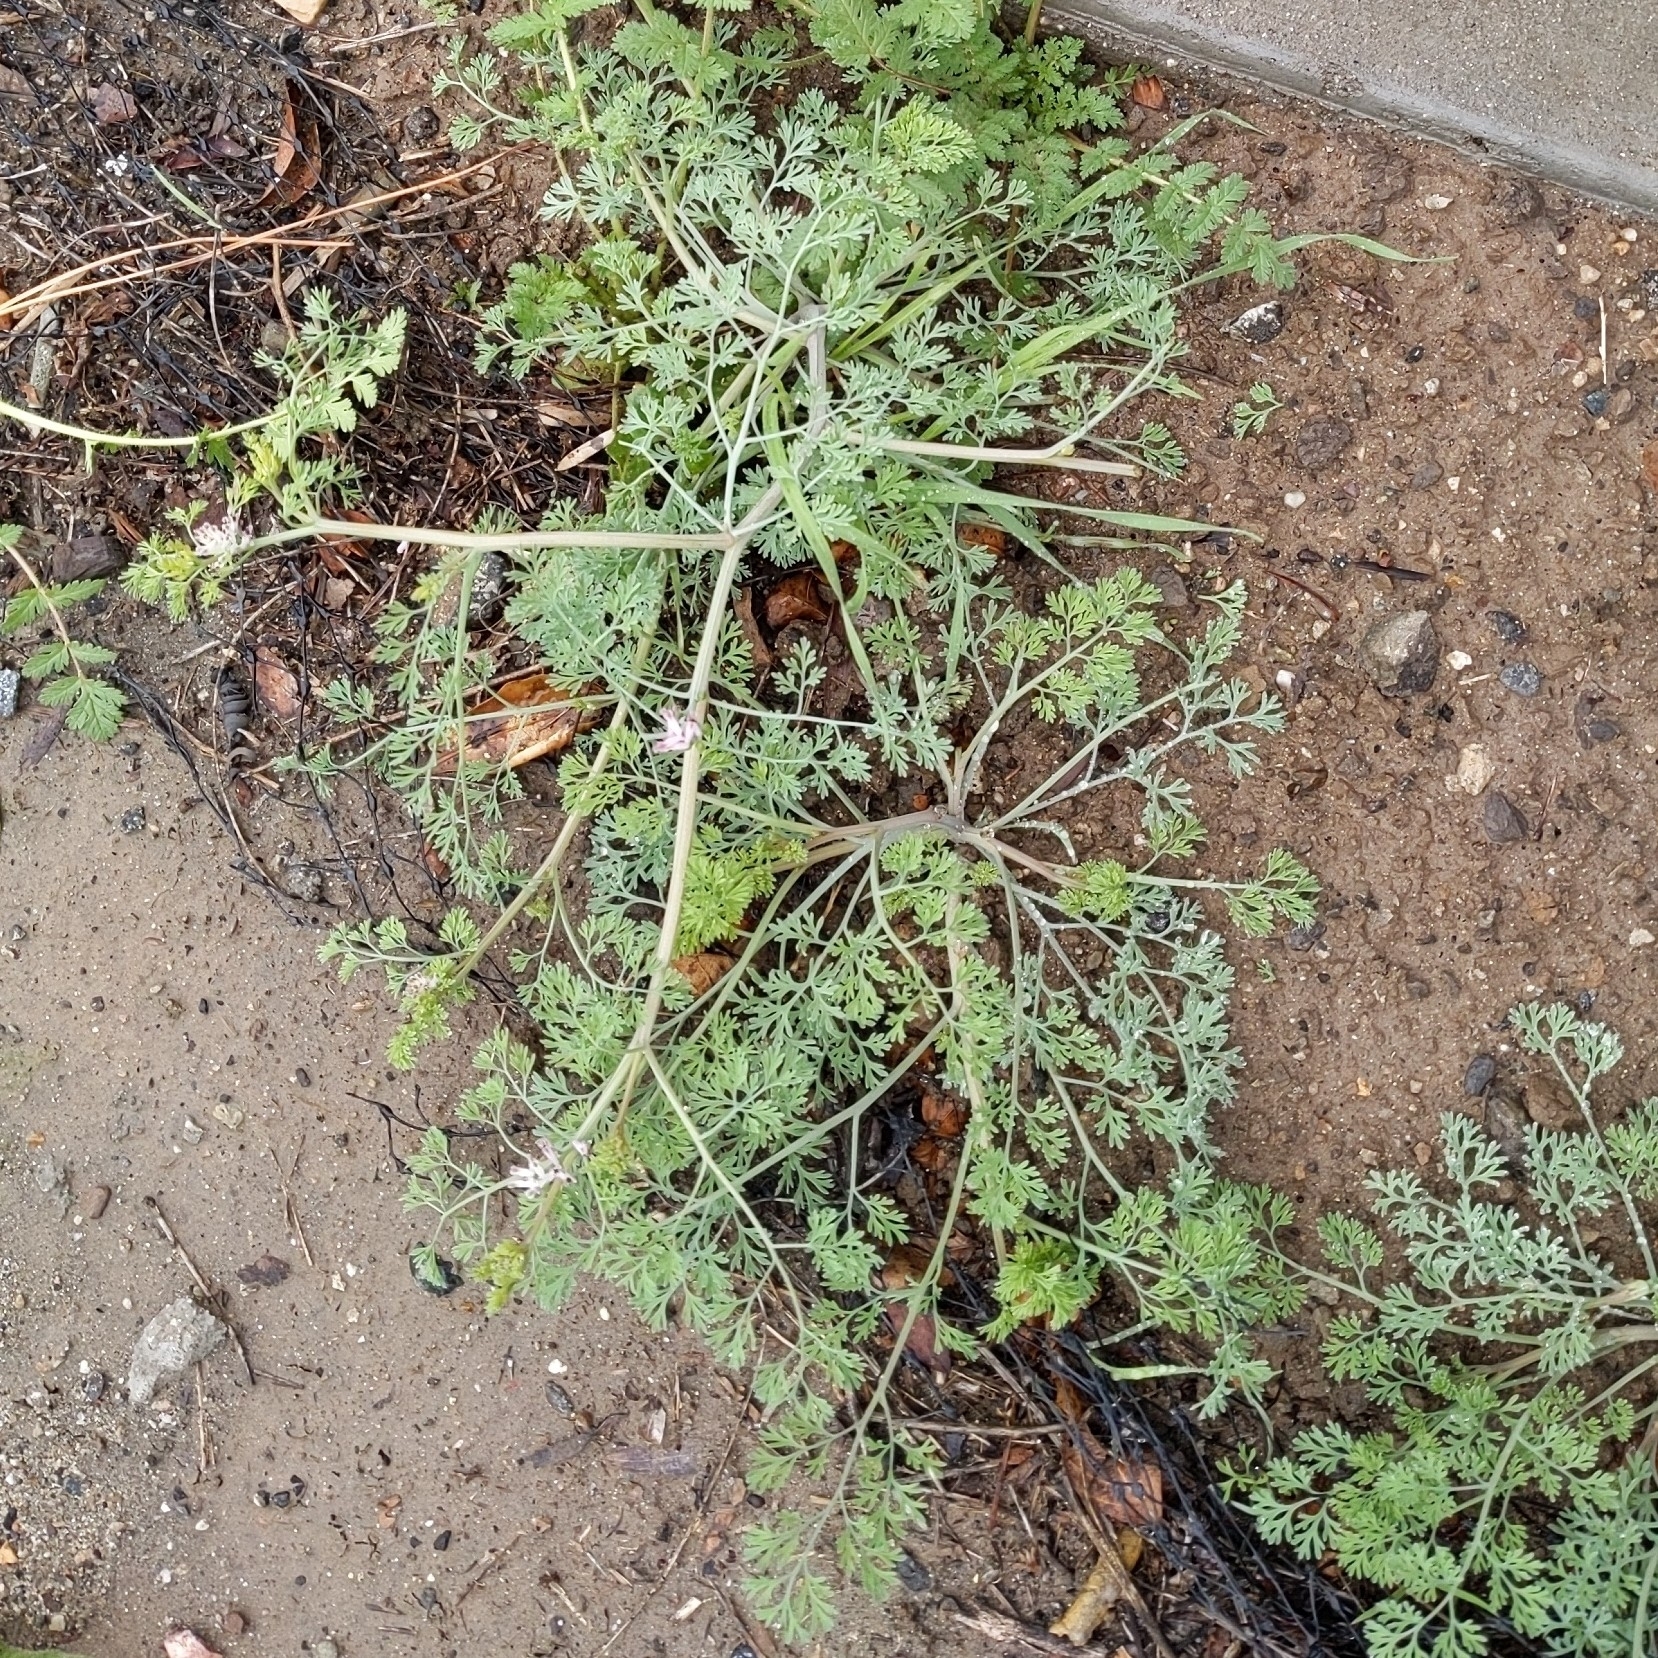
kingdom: Plantae
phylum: Tracheophyta
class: Magnoliopsida
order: Ranunculales
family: Papaveraceae
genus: Fumaria
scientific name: Fumaria parviflora
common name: Fine-leaved fumitory
